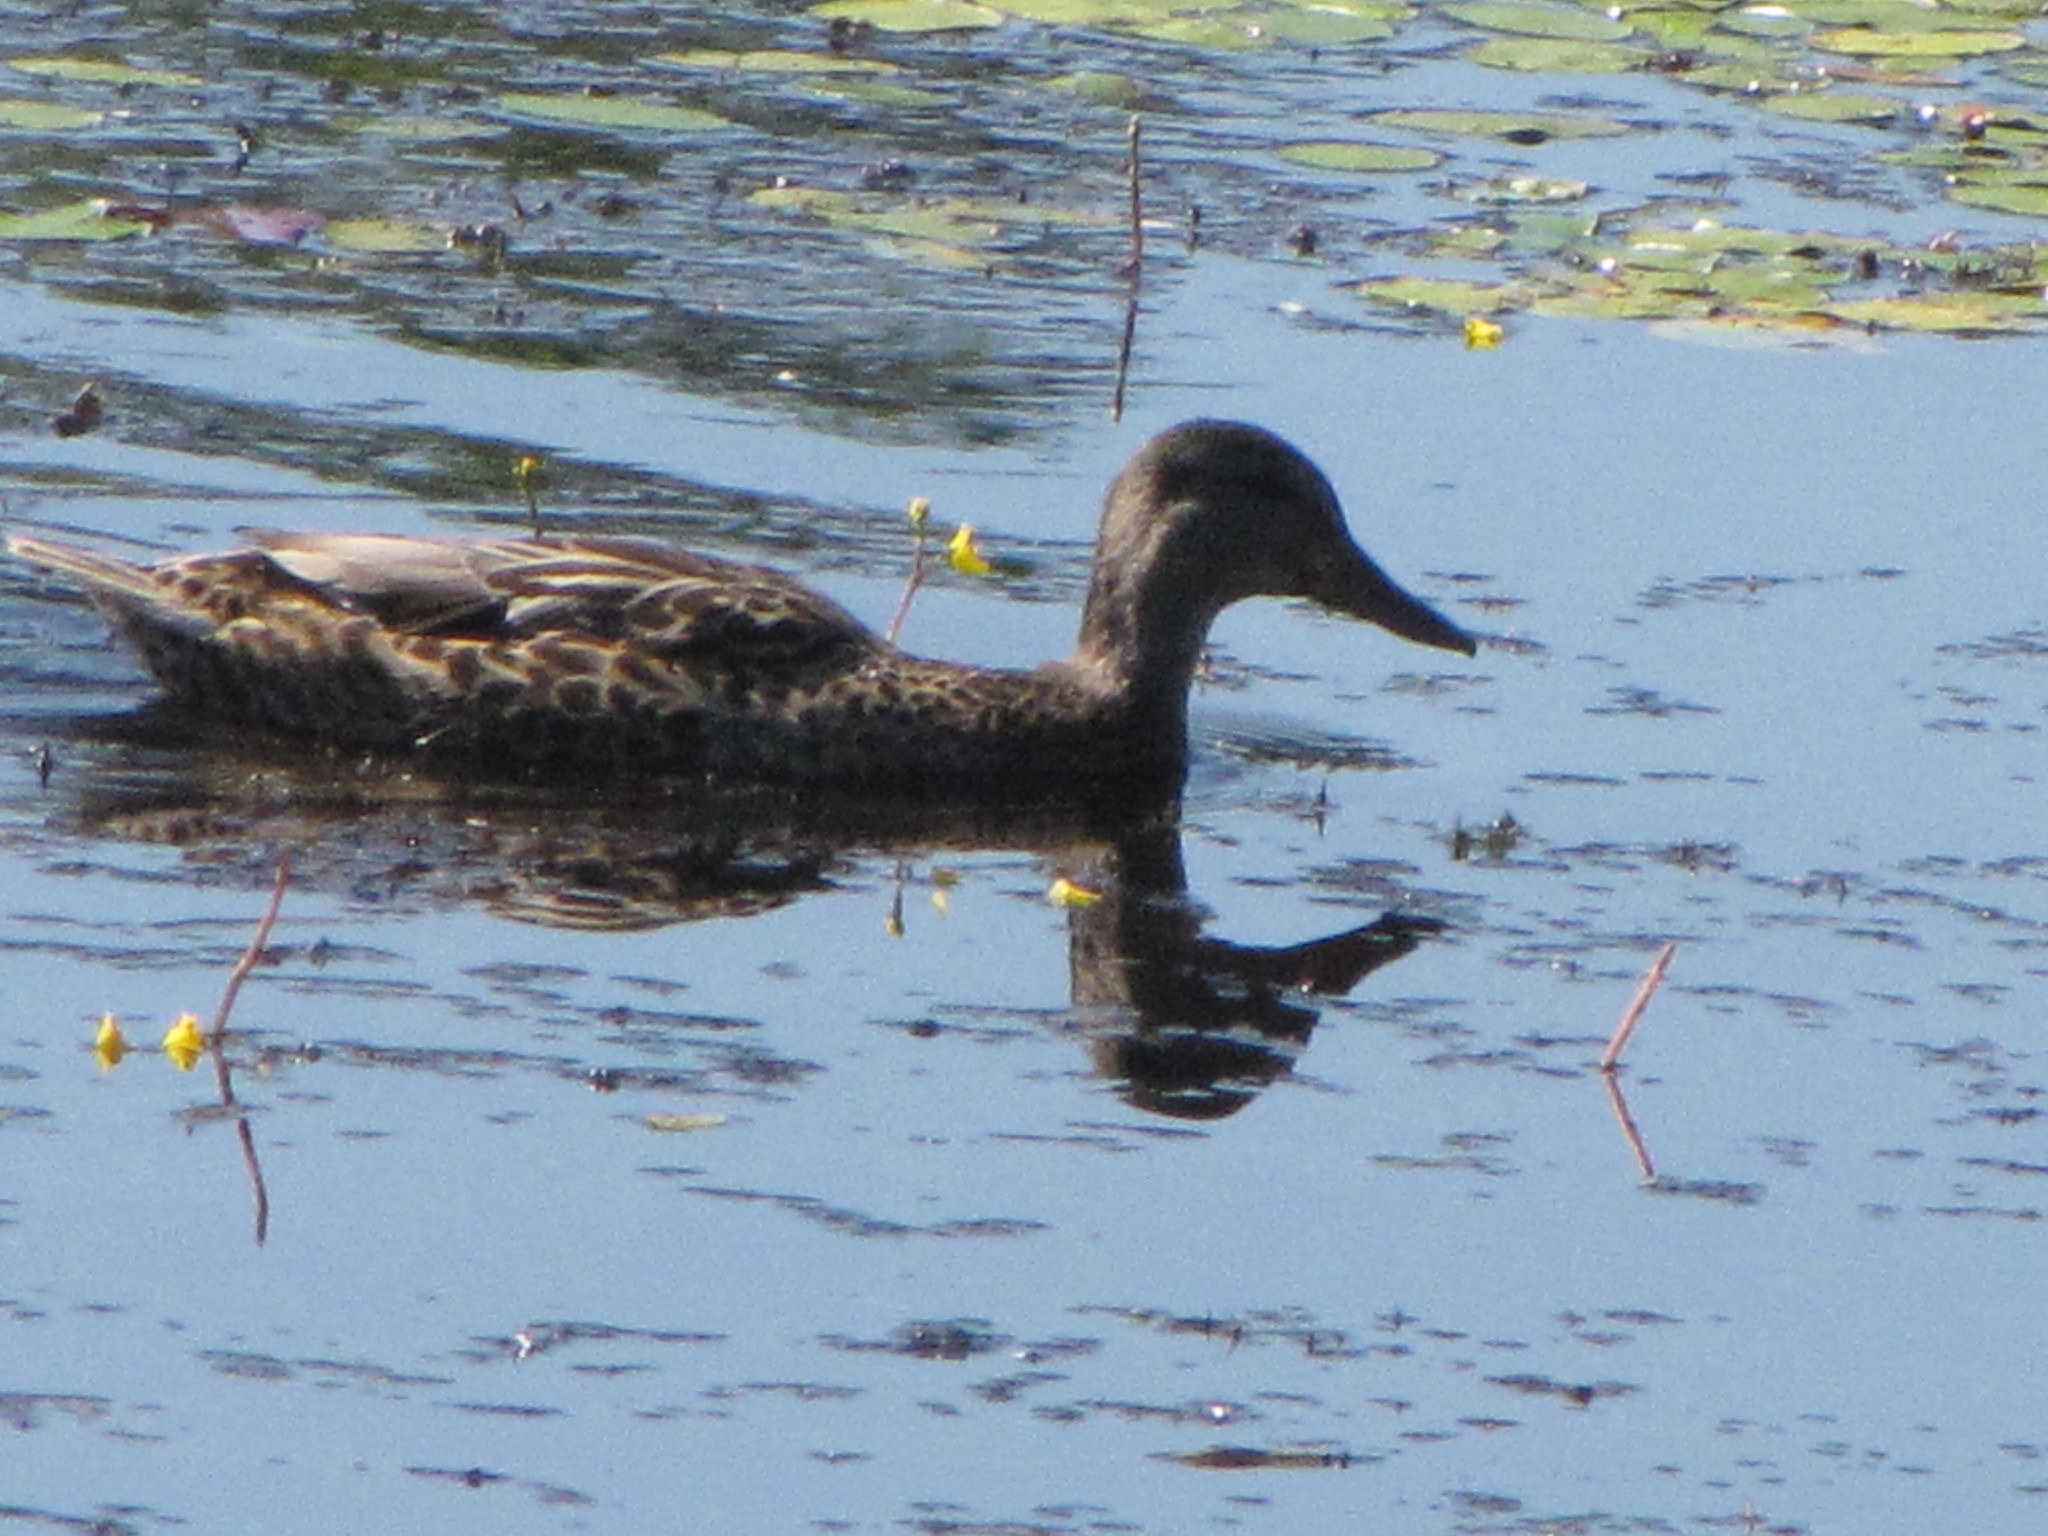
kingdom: Animalia
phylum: Chordata
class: Aves
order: Anseriformes
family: Anatidae
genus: Anas
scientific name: Anas platyrhynchos
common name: Mallard
